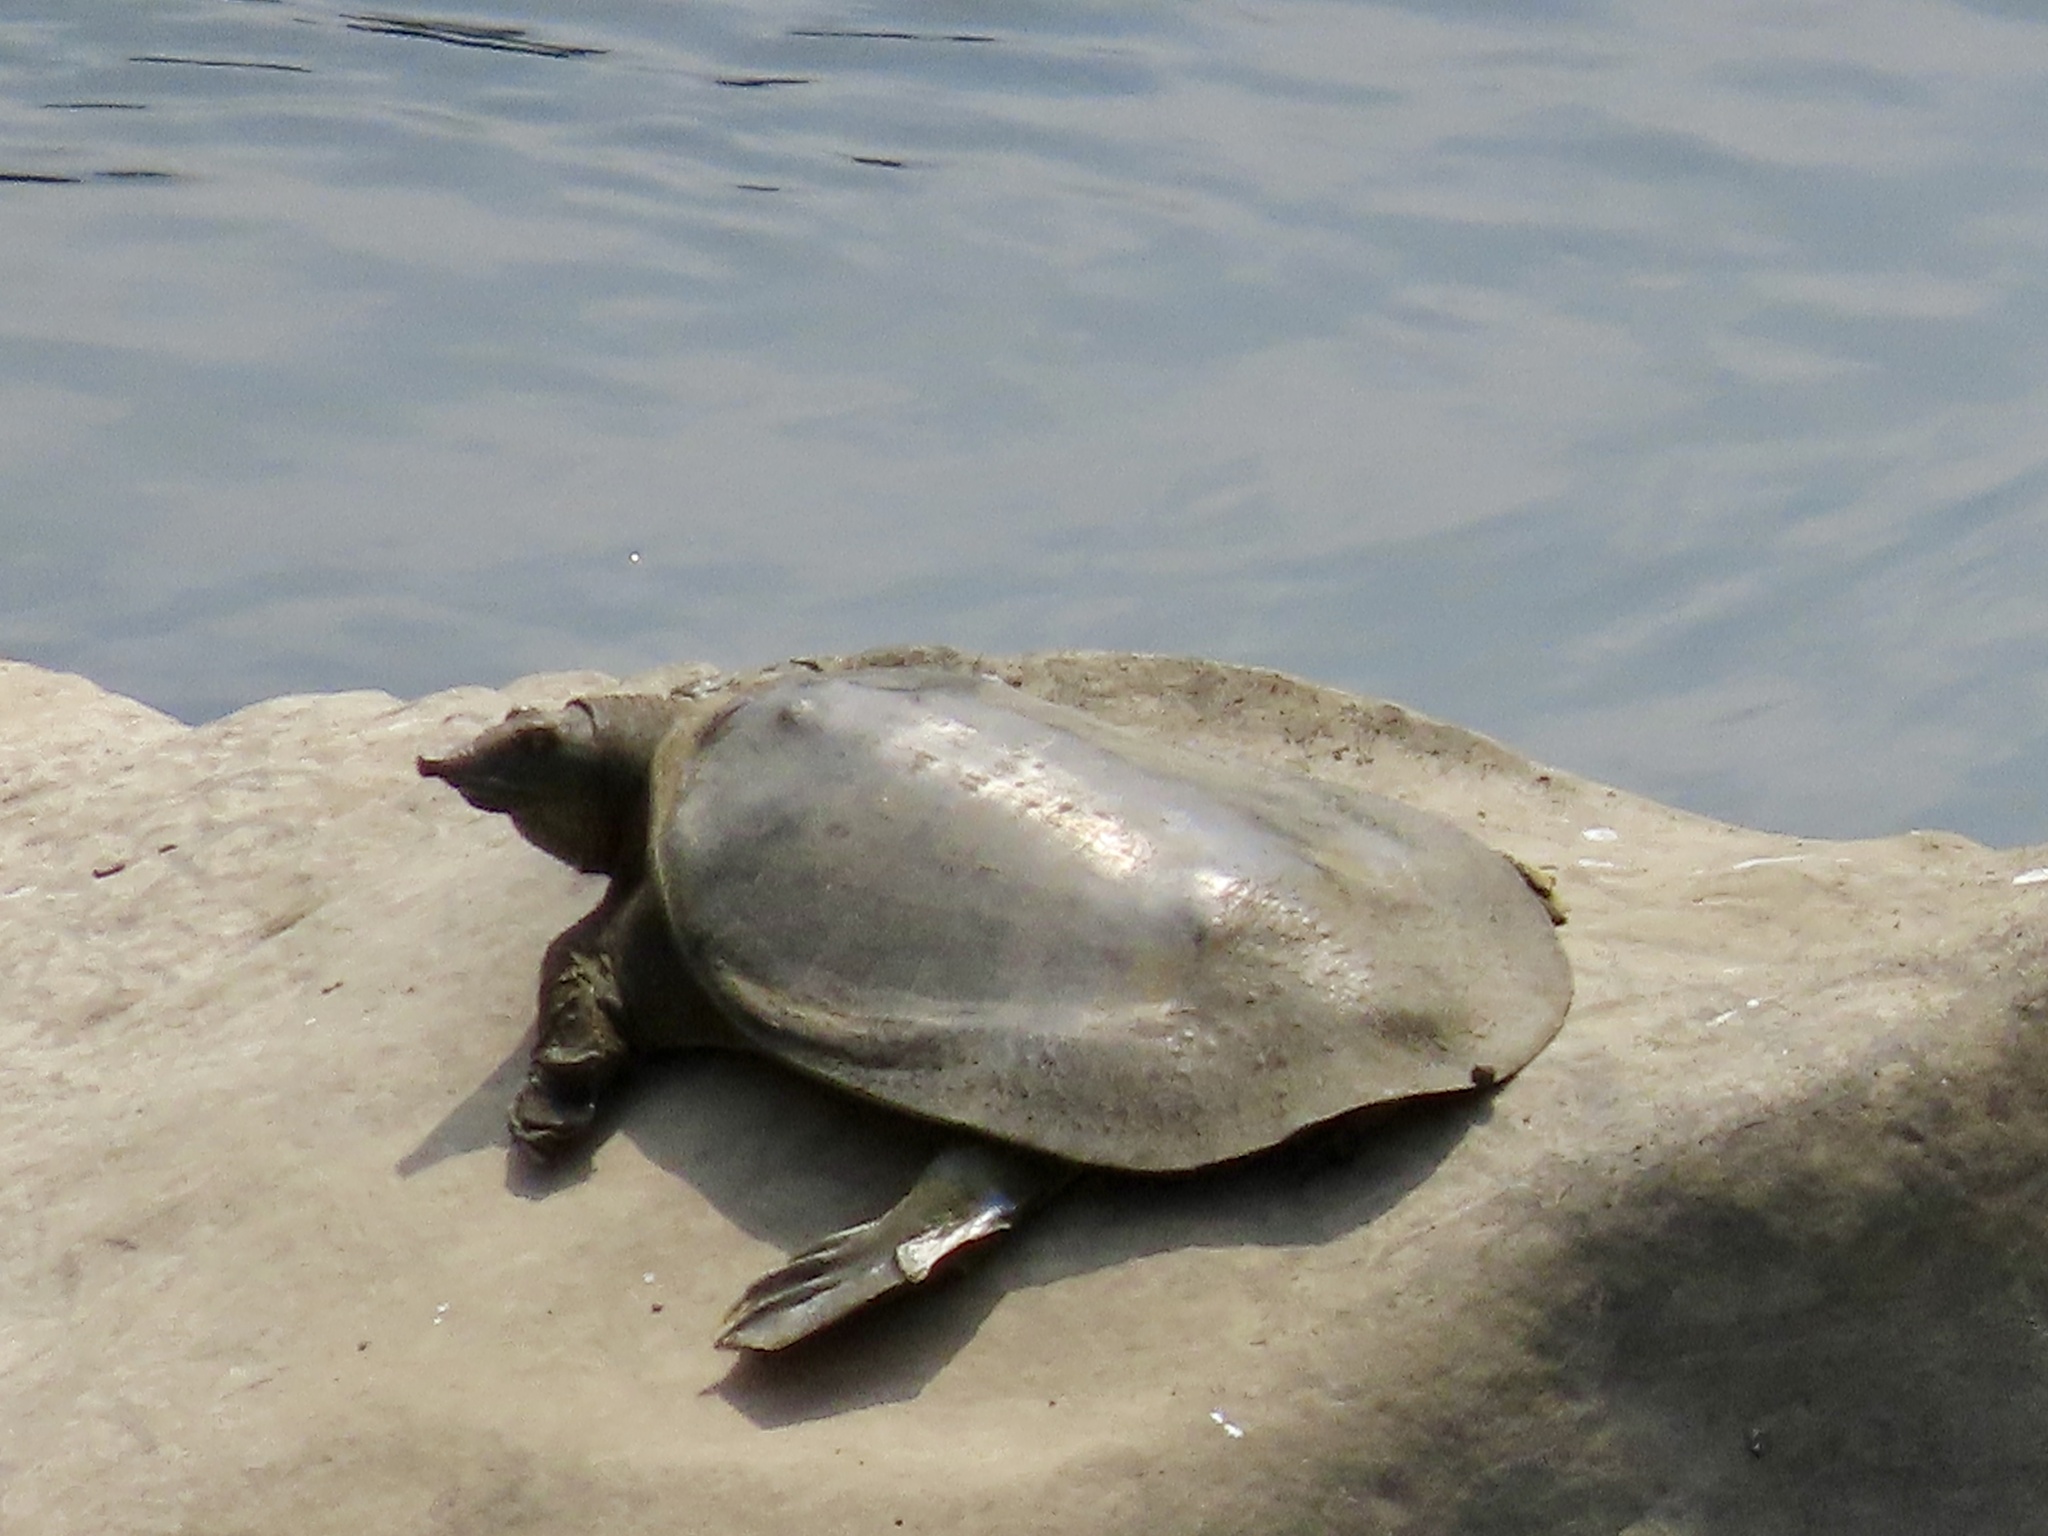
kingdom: Animalia
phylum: Chordata
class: Testudines
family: Trionychidae
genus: Pelodiscus
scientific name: Pelodiscus sinensis
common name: Chinese softshell turtle
